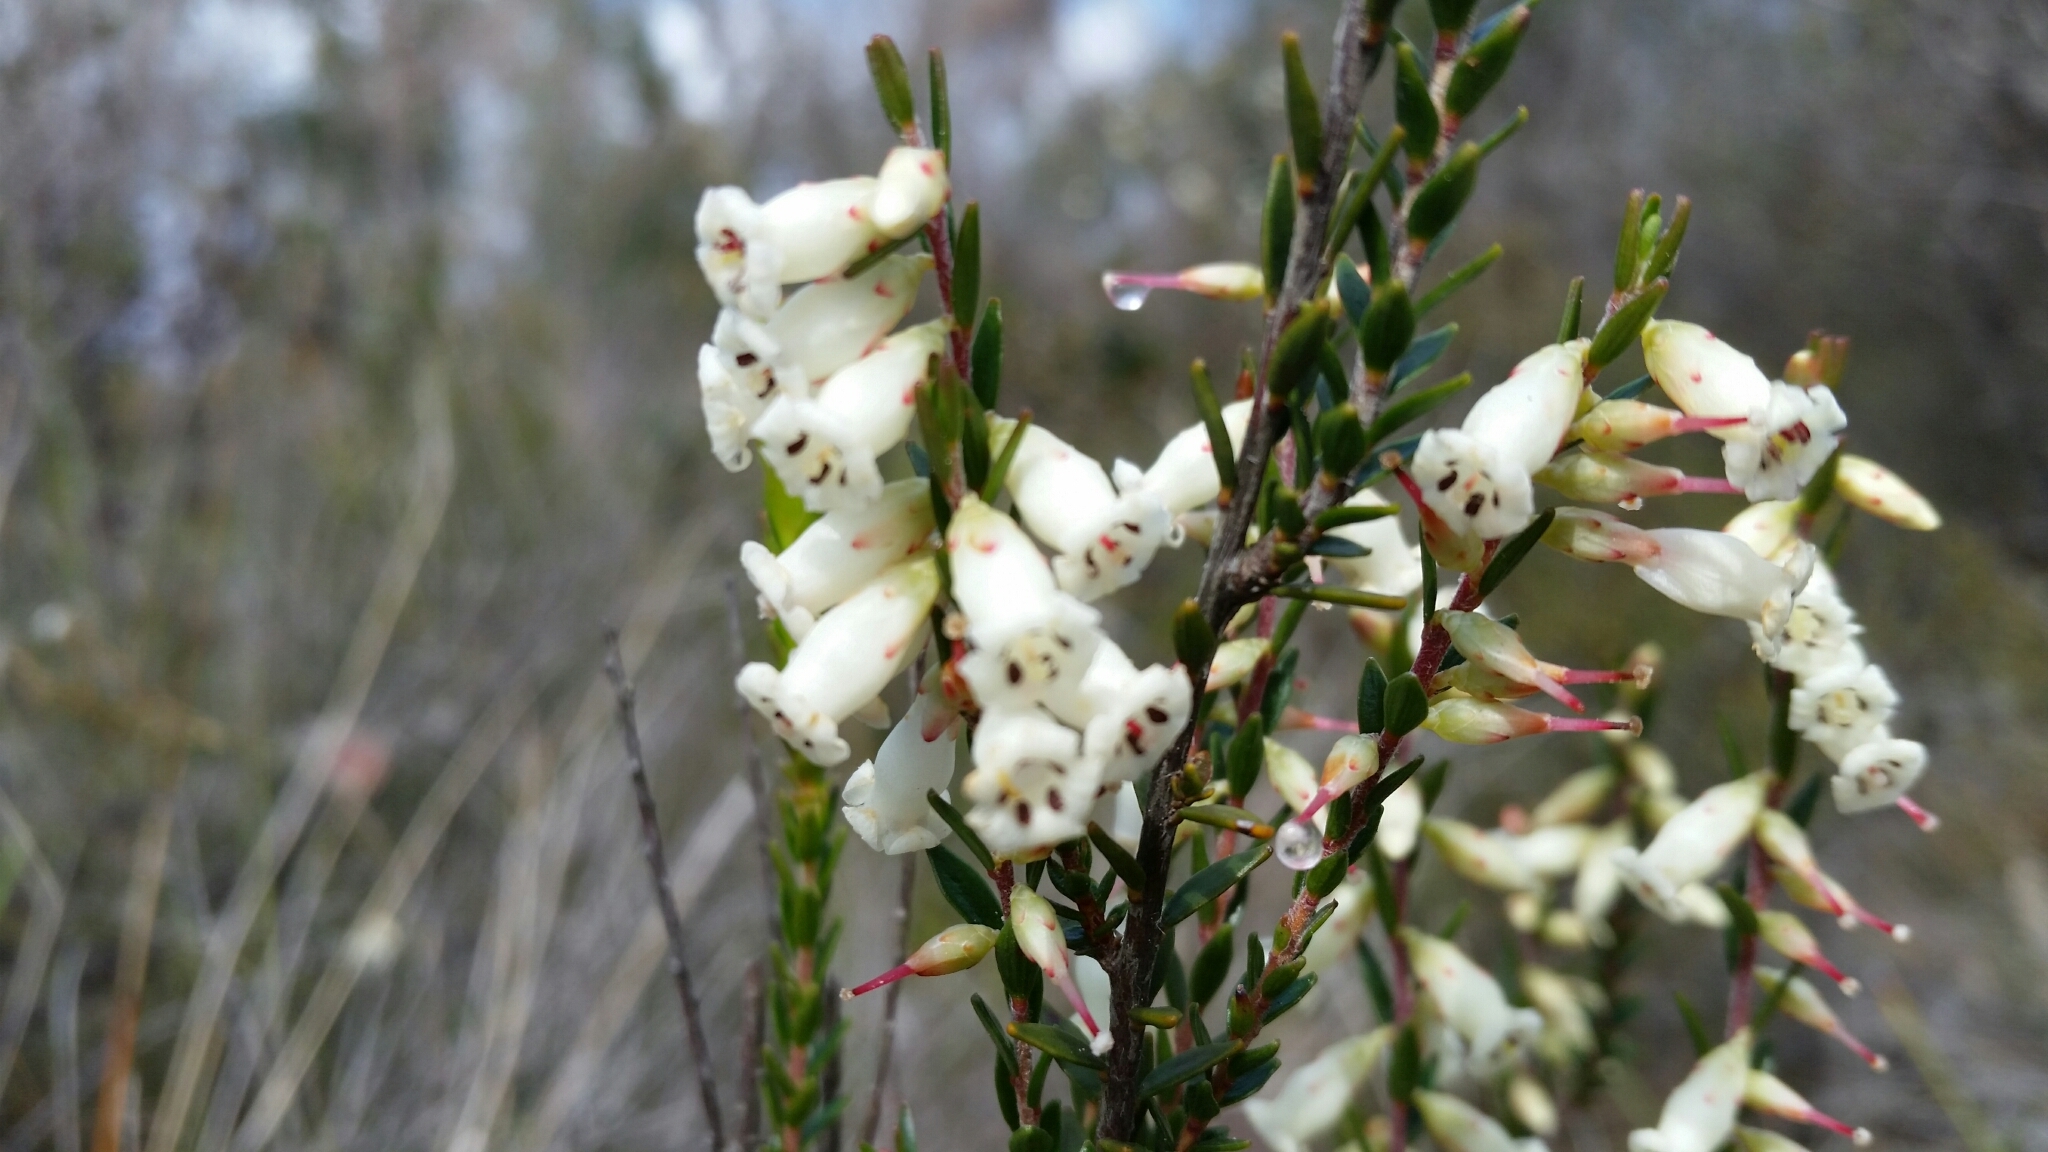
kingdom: Plantae
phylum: Tracheophyta
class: Magnoliopsida
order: Ericales
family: Ericaceae
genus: Epacris
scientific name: Epacris obtusifolia
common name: Blunt-leaf australian-heath
